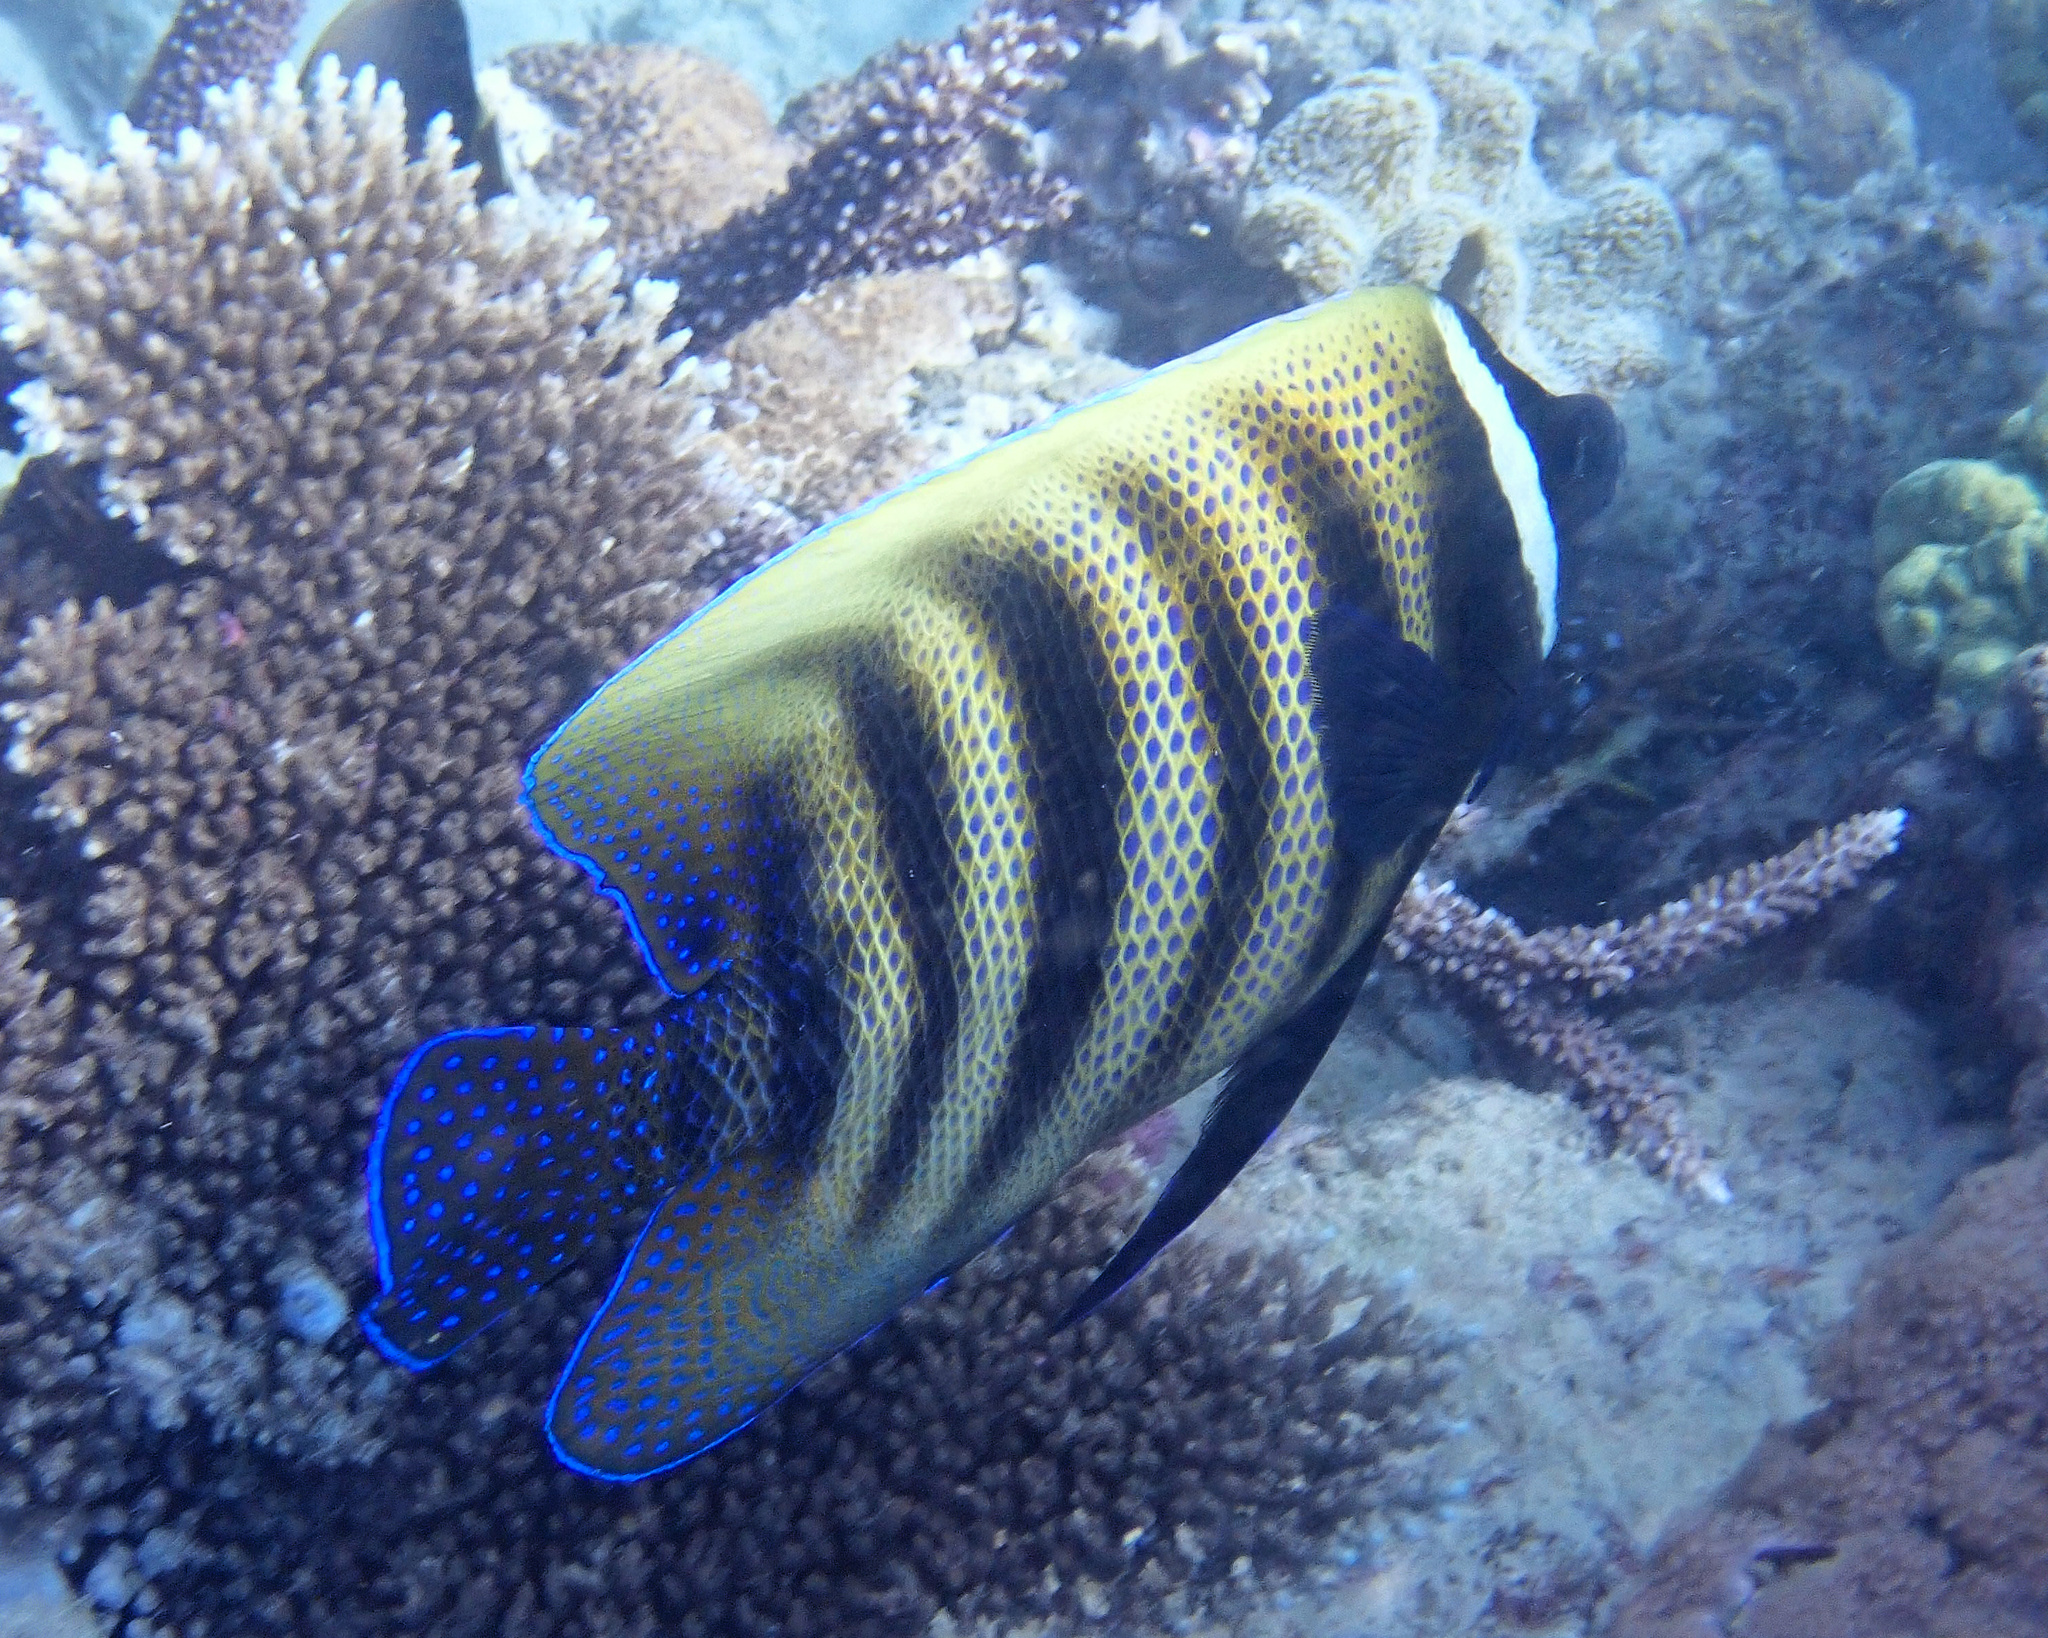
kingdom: Animalia
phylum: Chordata
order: Perciformes
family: Pomacanthidae
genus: Pomacanthus
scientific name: Pomacanthus sexstriatus
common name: Six-banded angelfish
